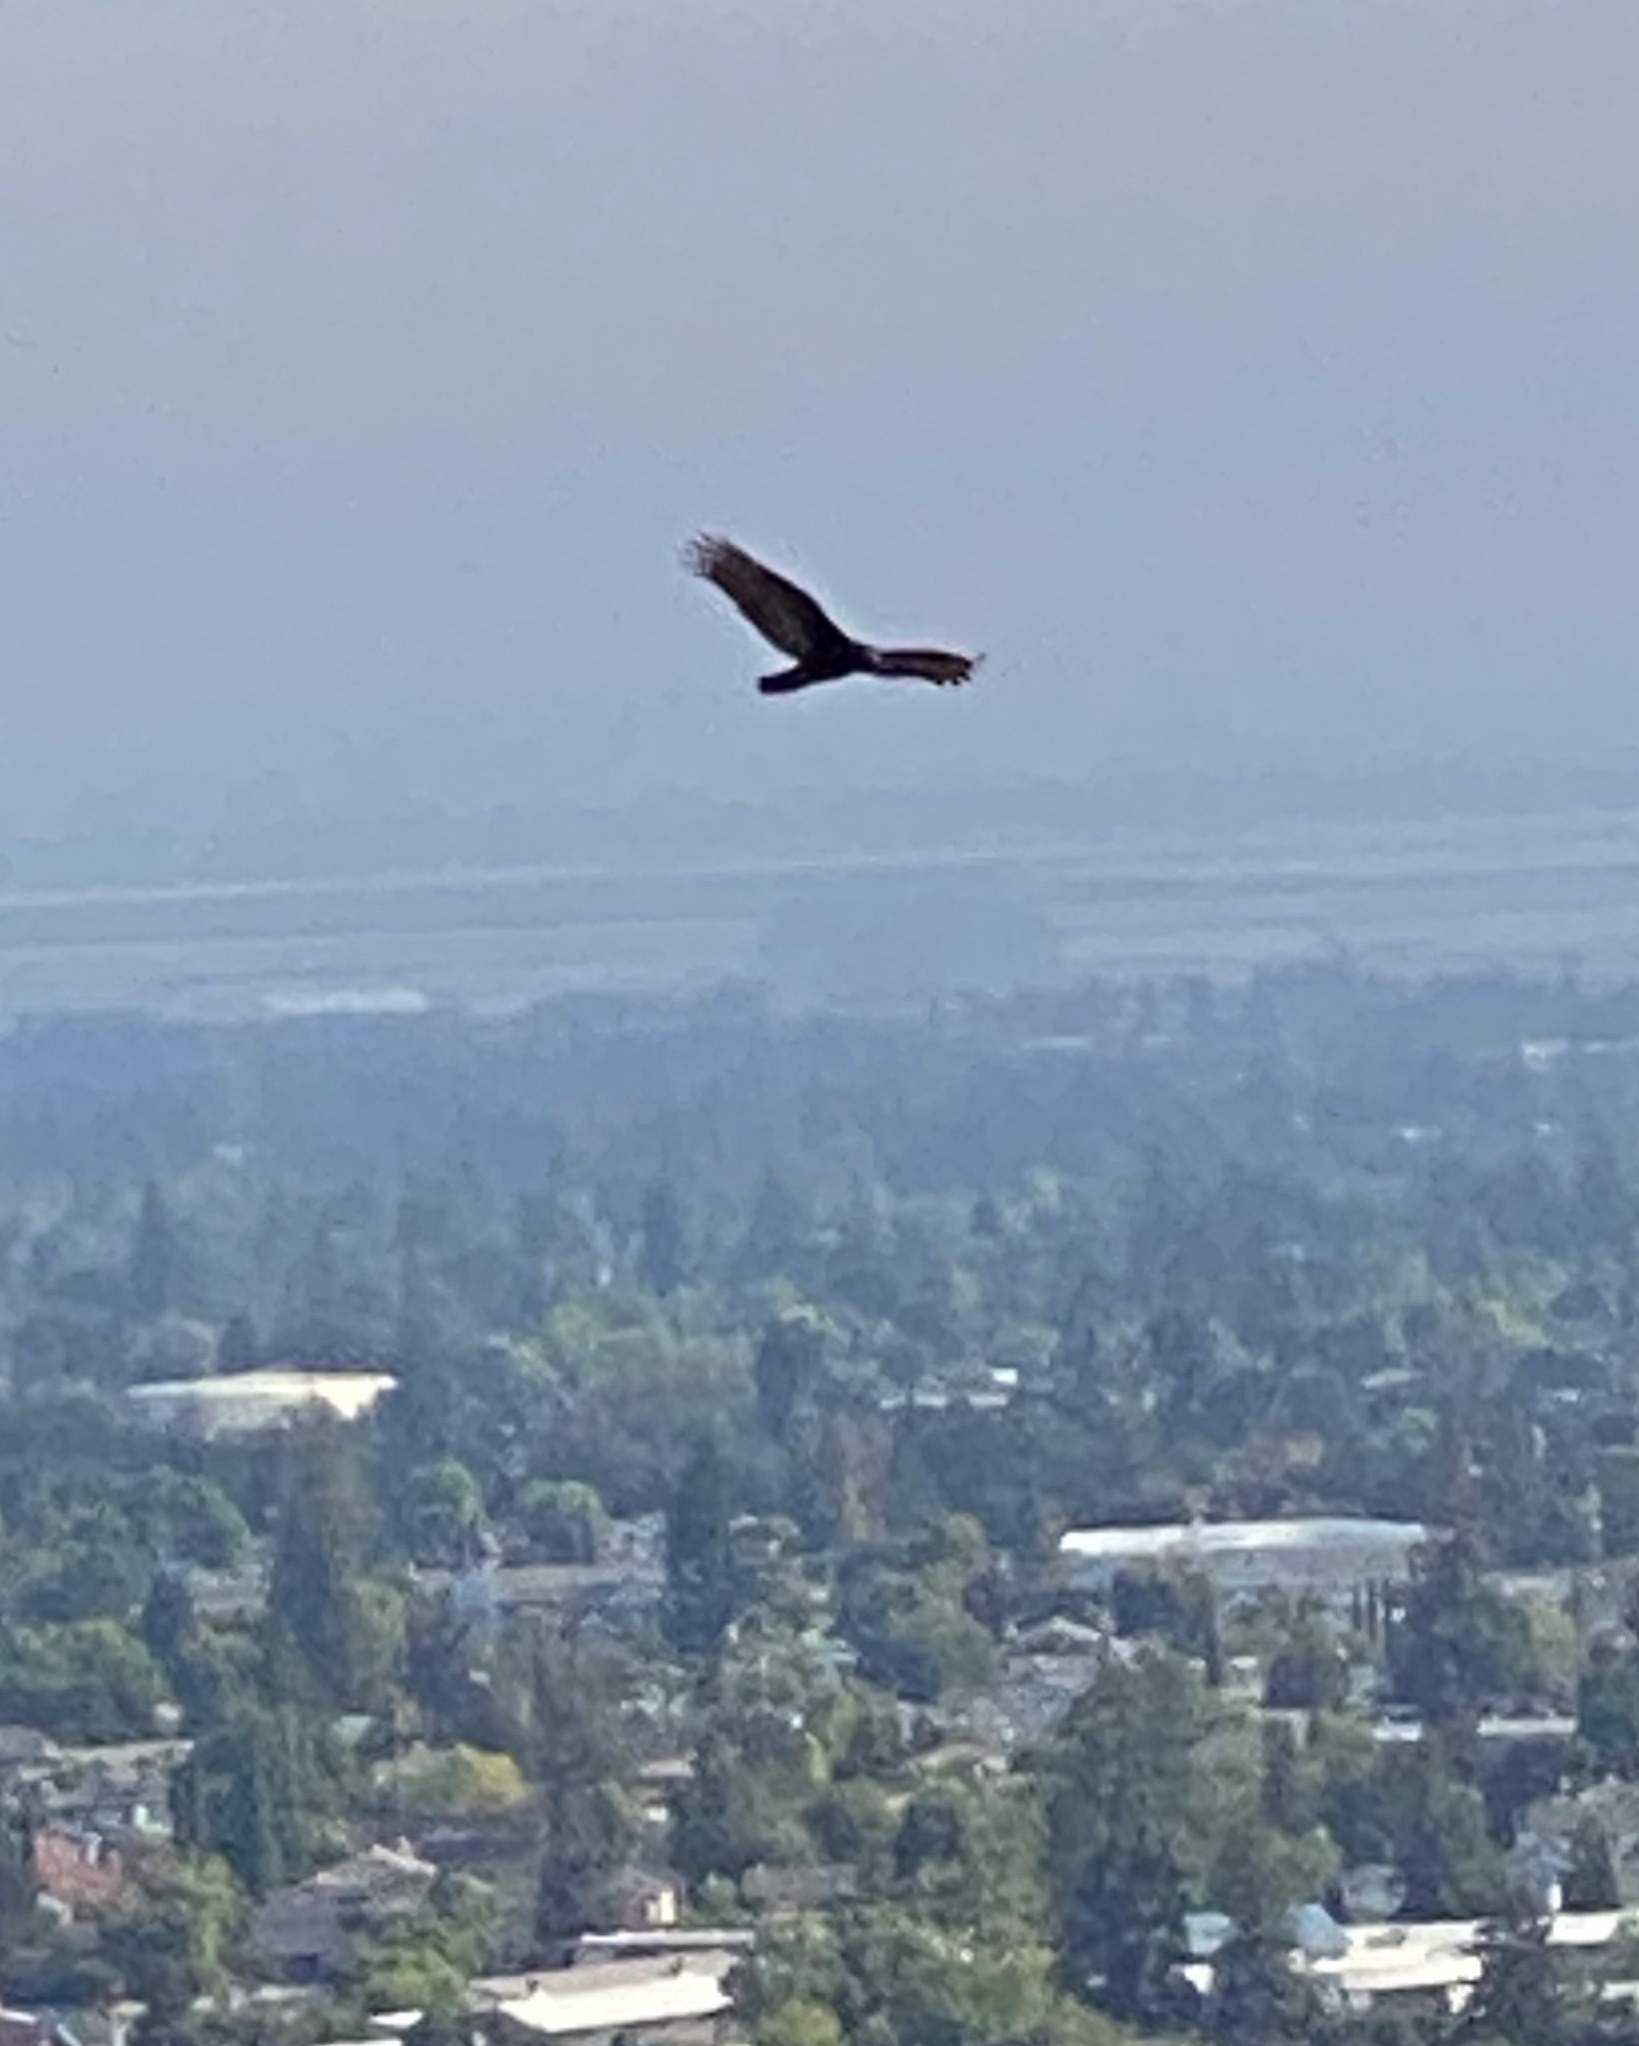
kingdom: Animalia
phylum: Chordata
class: Aves
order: Accipitriformes
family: Cathartidae
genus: Cathartes
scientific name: Cathartes aura
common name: Turkey vulture
